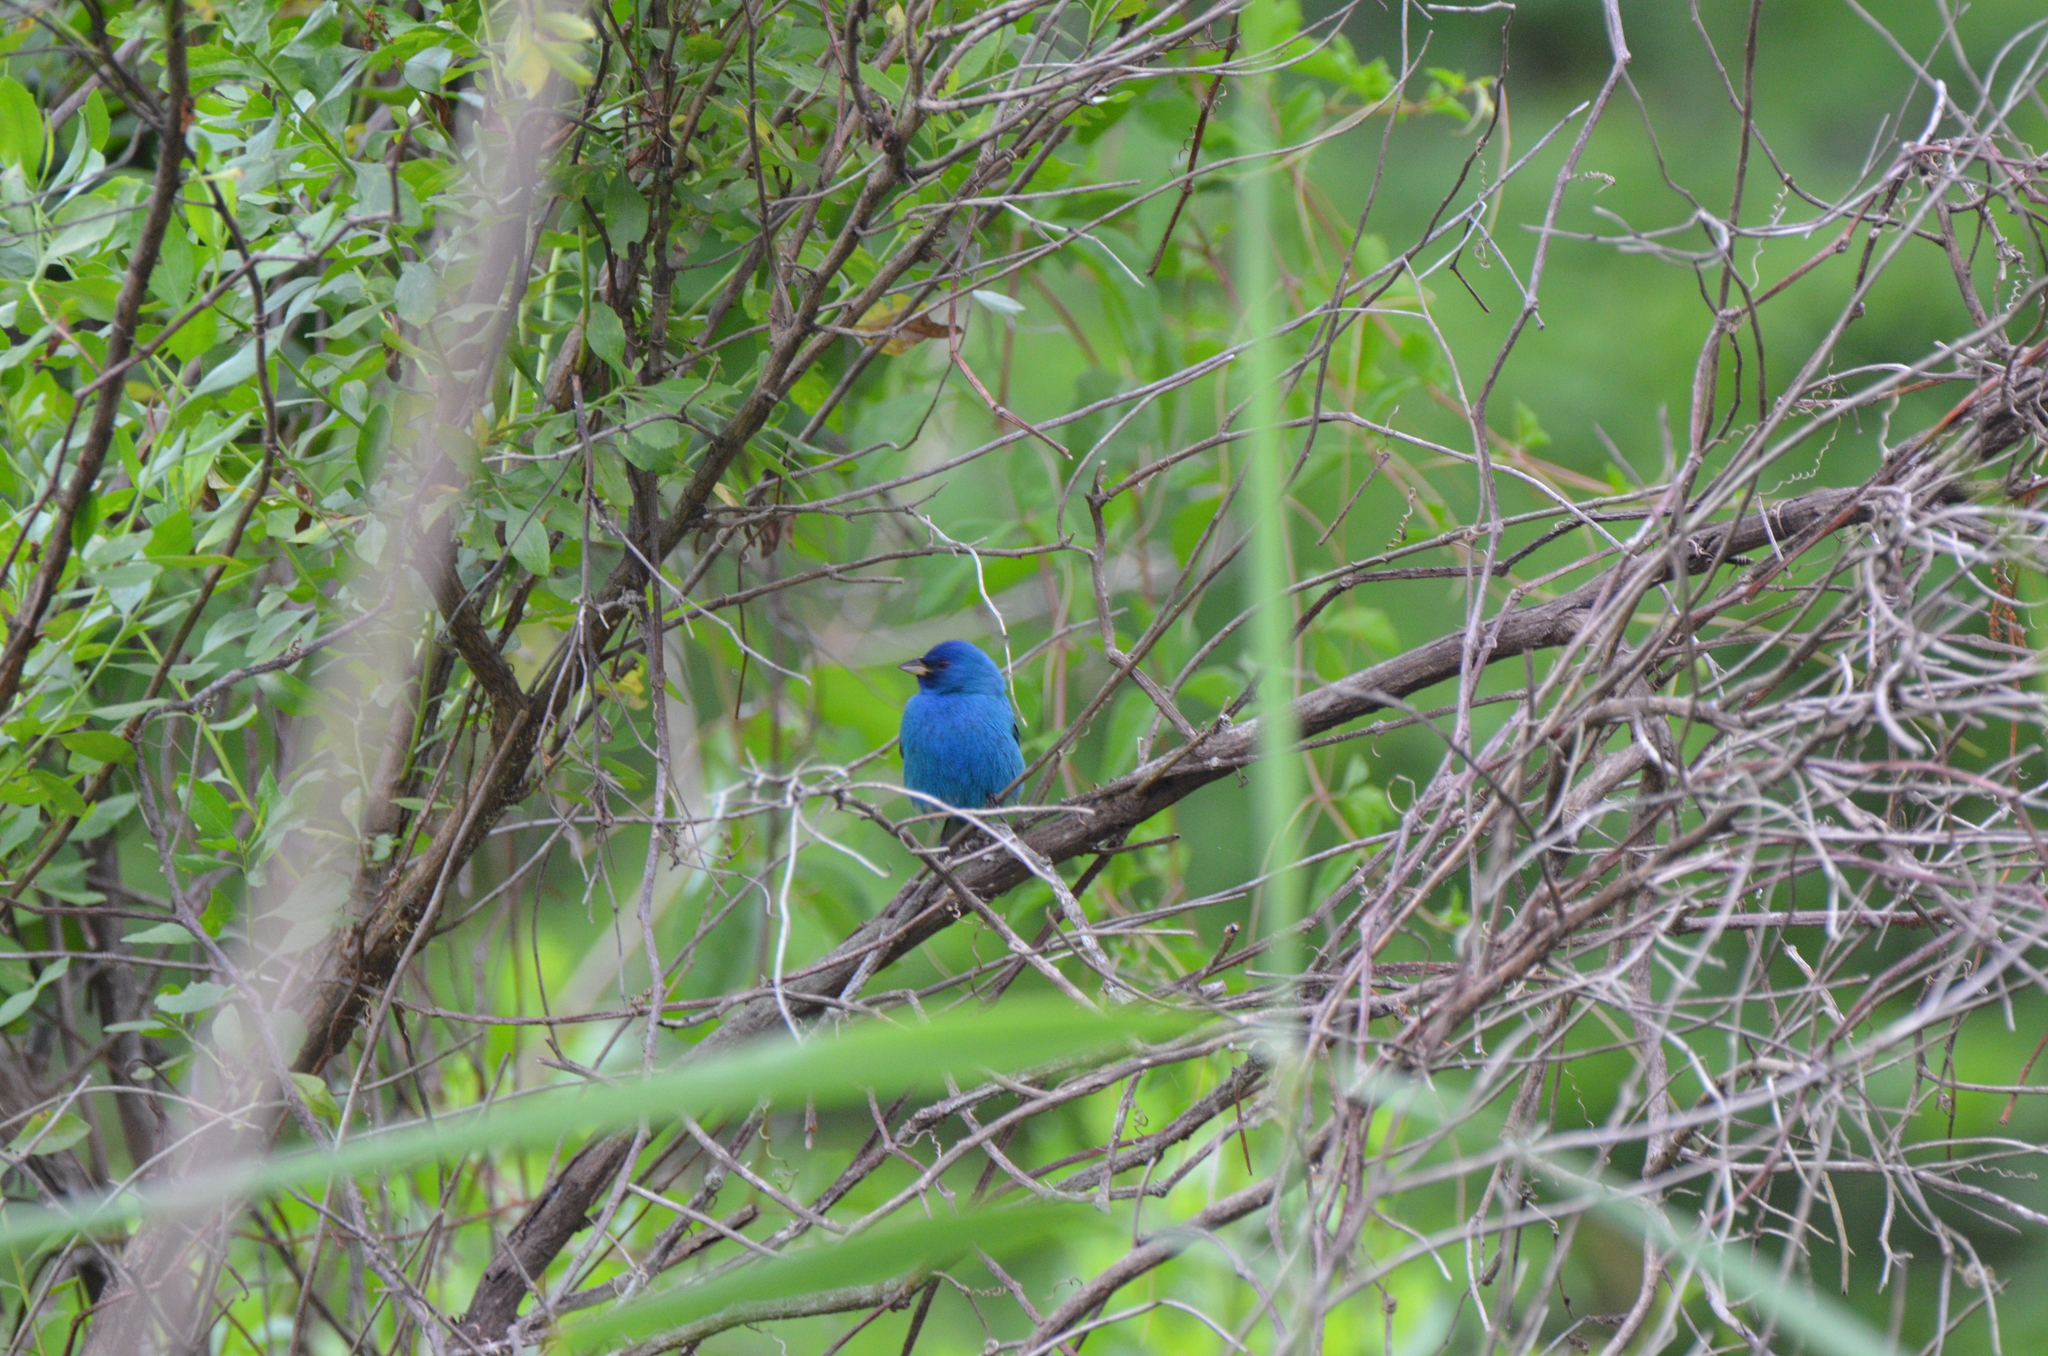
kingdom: Animalia
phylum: Chordata
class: Aves
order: Passeriformes
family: Cardinalidae
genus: Passerina
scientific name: Passerina cyanea
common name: Indigo bunting
